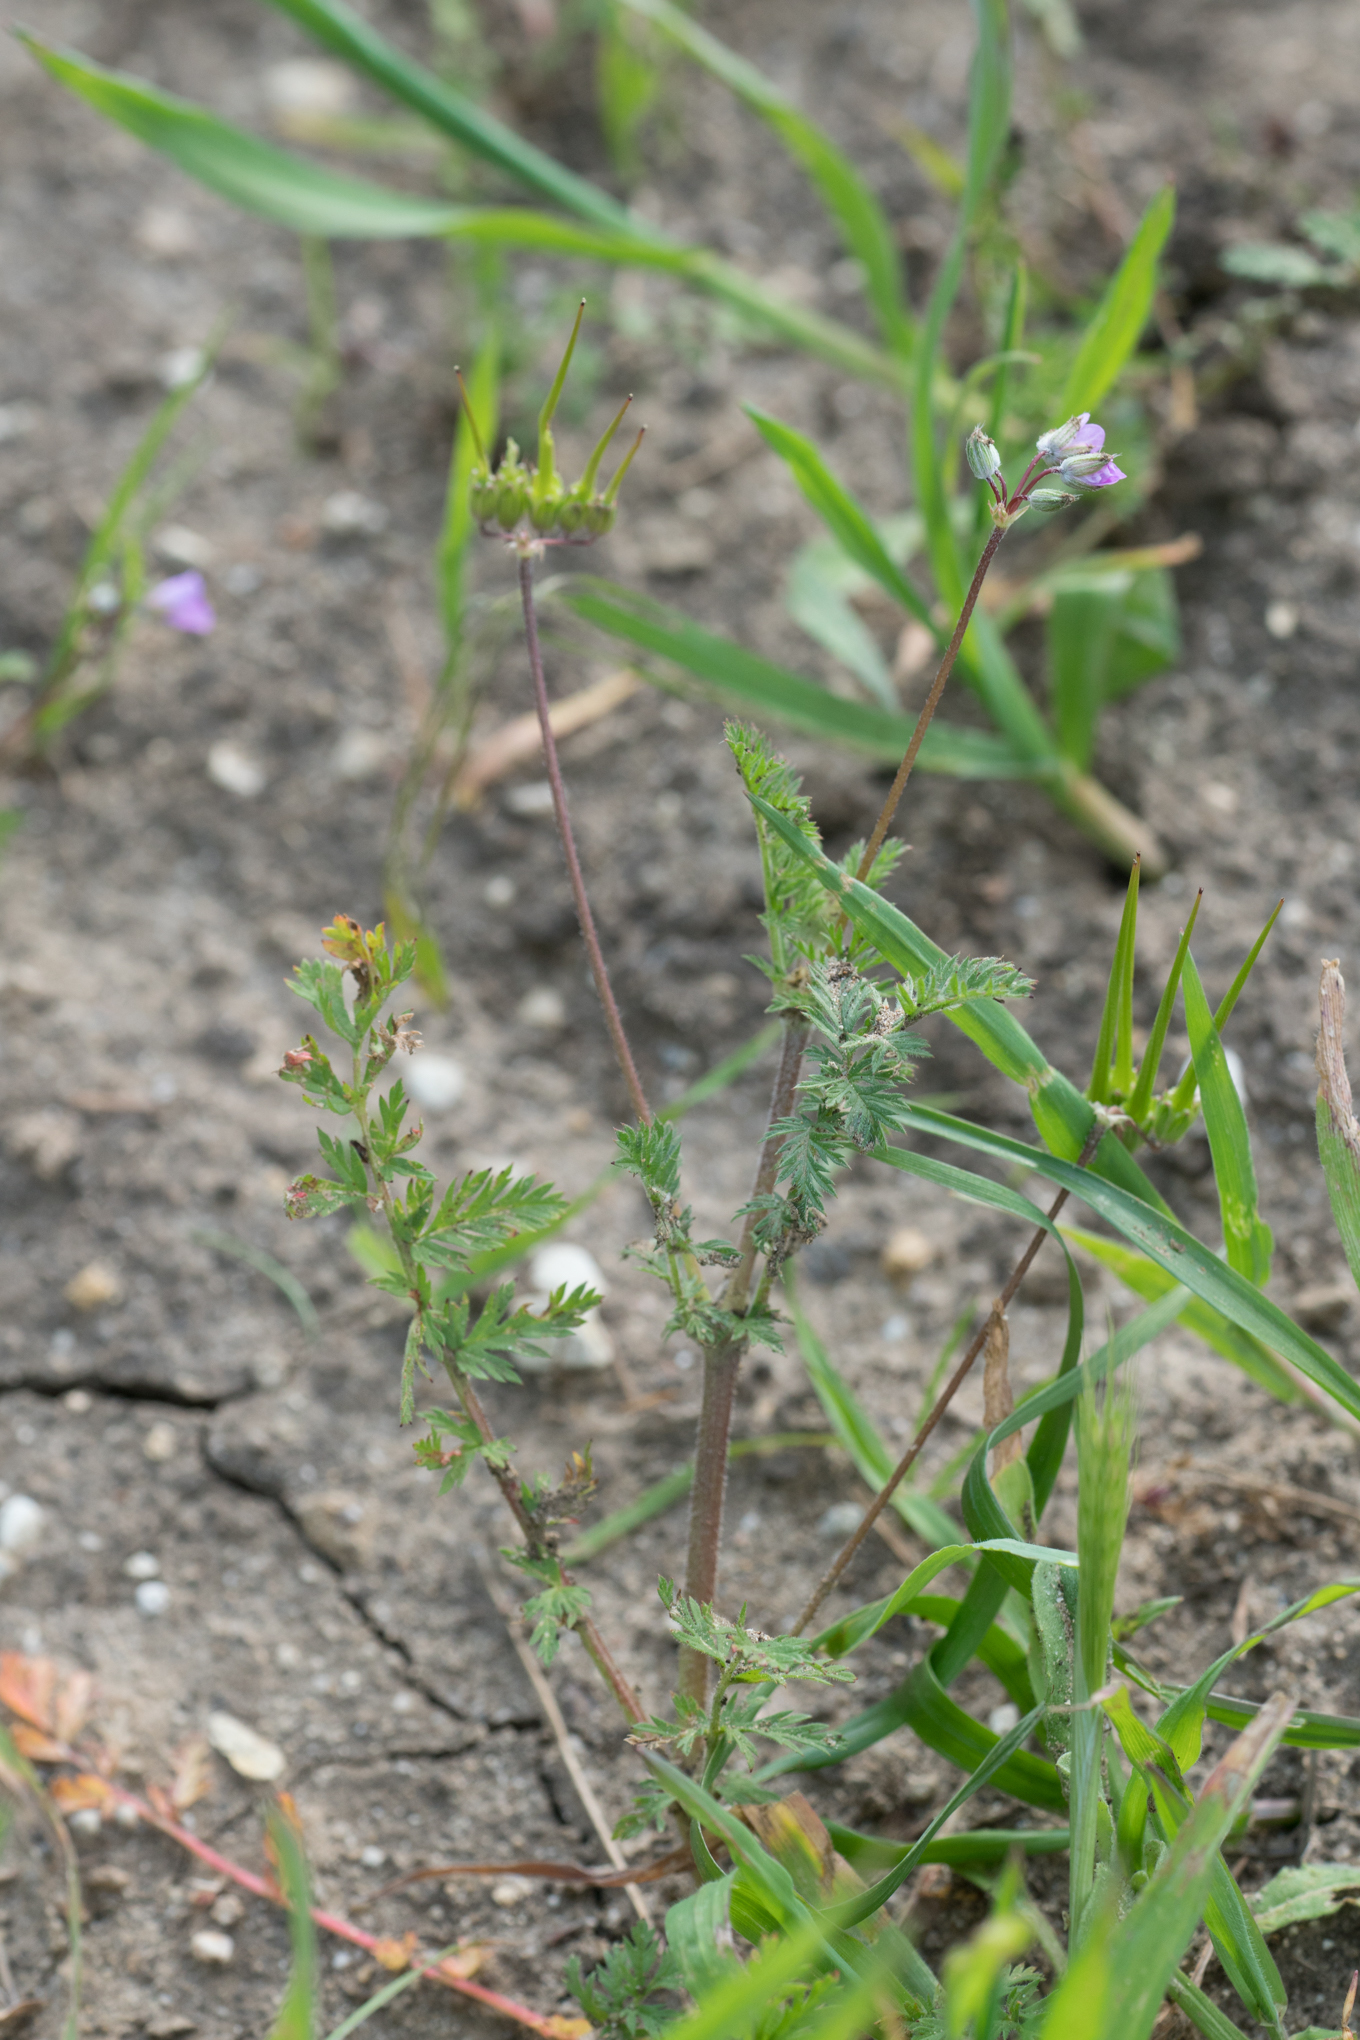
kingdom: Plantae
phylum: Tracheophyta
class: Magnoliopsida
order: Geraniales
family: Geraniaceae
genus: Erodium
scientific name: Erodium cicutarium
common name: Common stork's-bill
